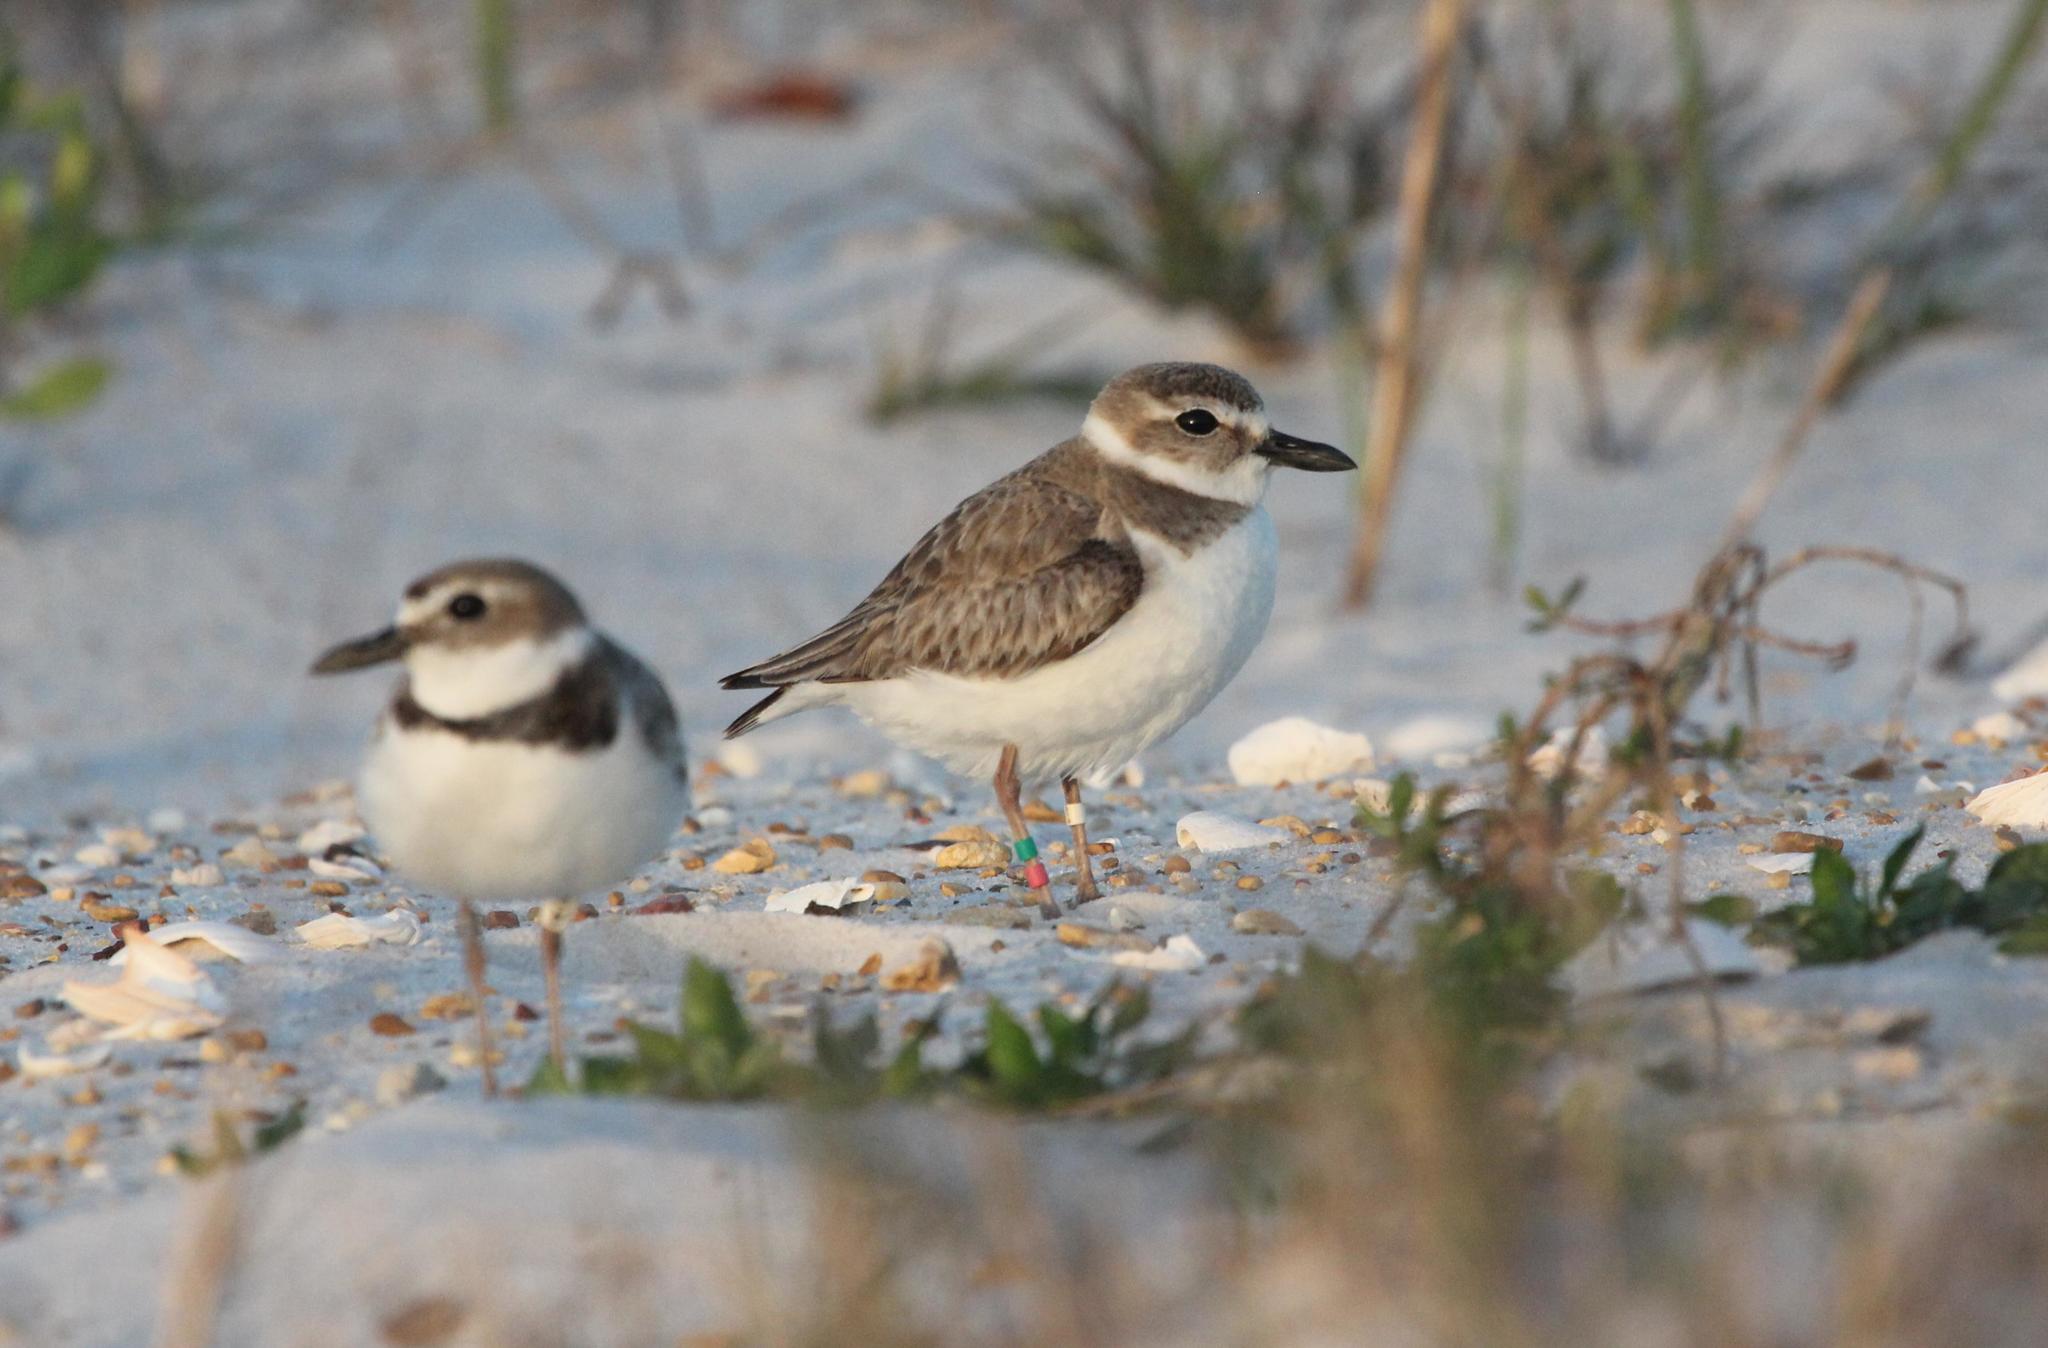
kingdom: Animalia
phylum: Chordata
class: Aves
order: Charadriiformes
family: Charadriidae
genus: Anarhynchus
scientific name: Anarhynchus
